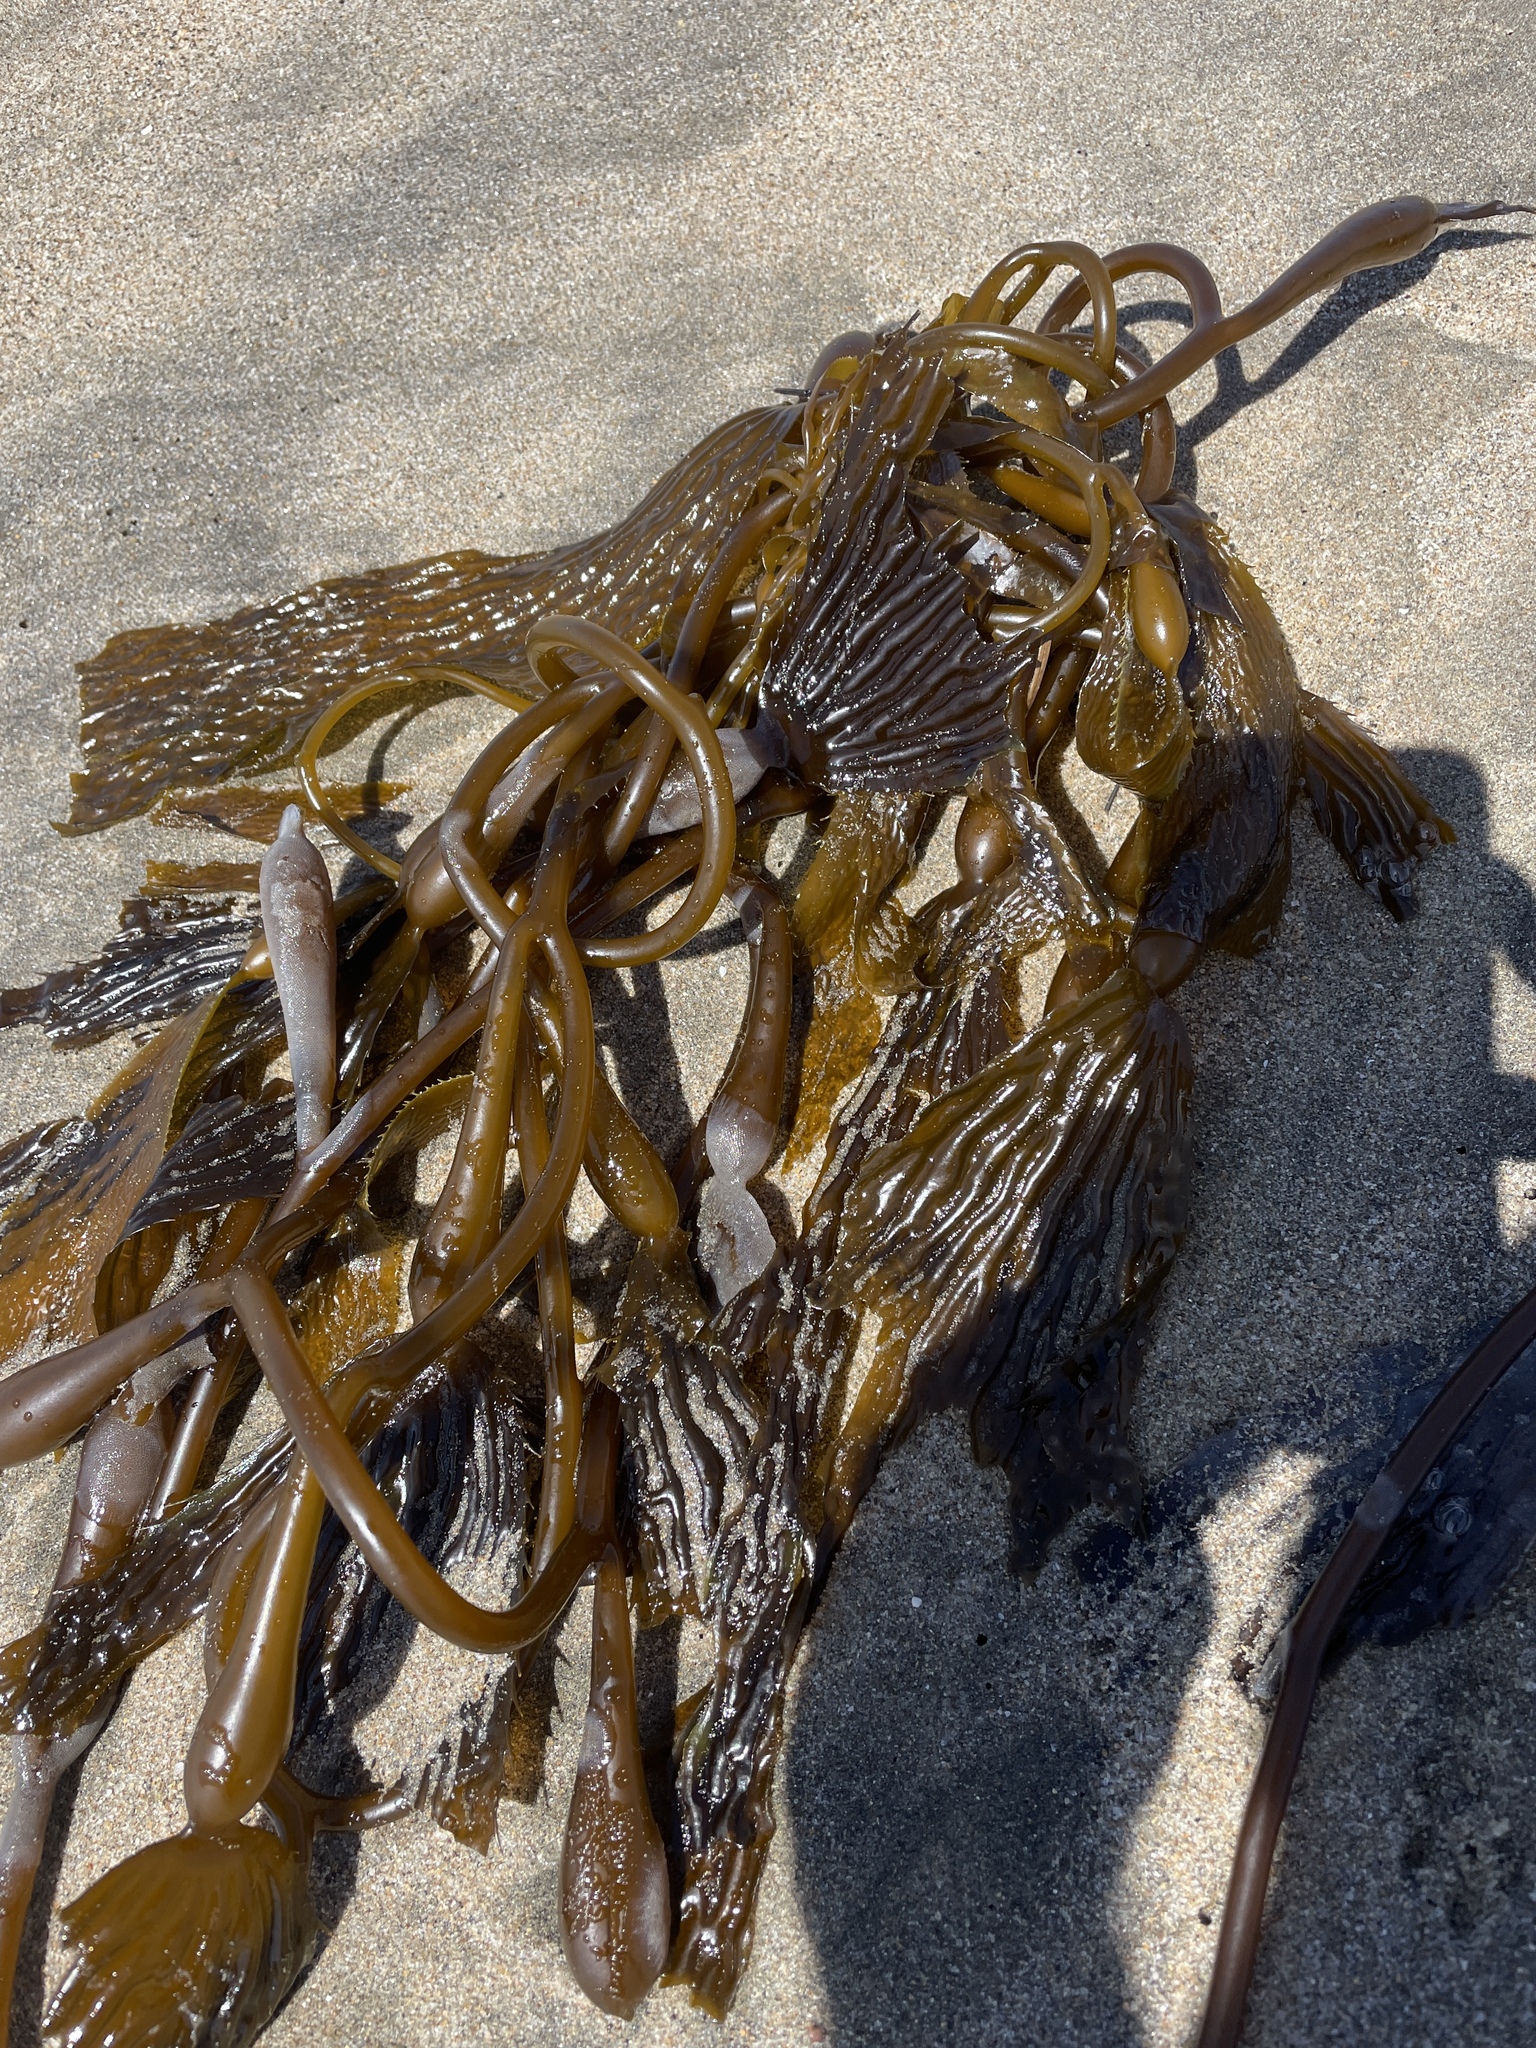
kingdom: Chromista
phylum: Ochrophyta
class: Phaeophyceae
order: Laminariales
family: Laminariaceae
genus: Macrocystis
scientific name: Macrocystis pyrifera
